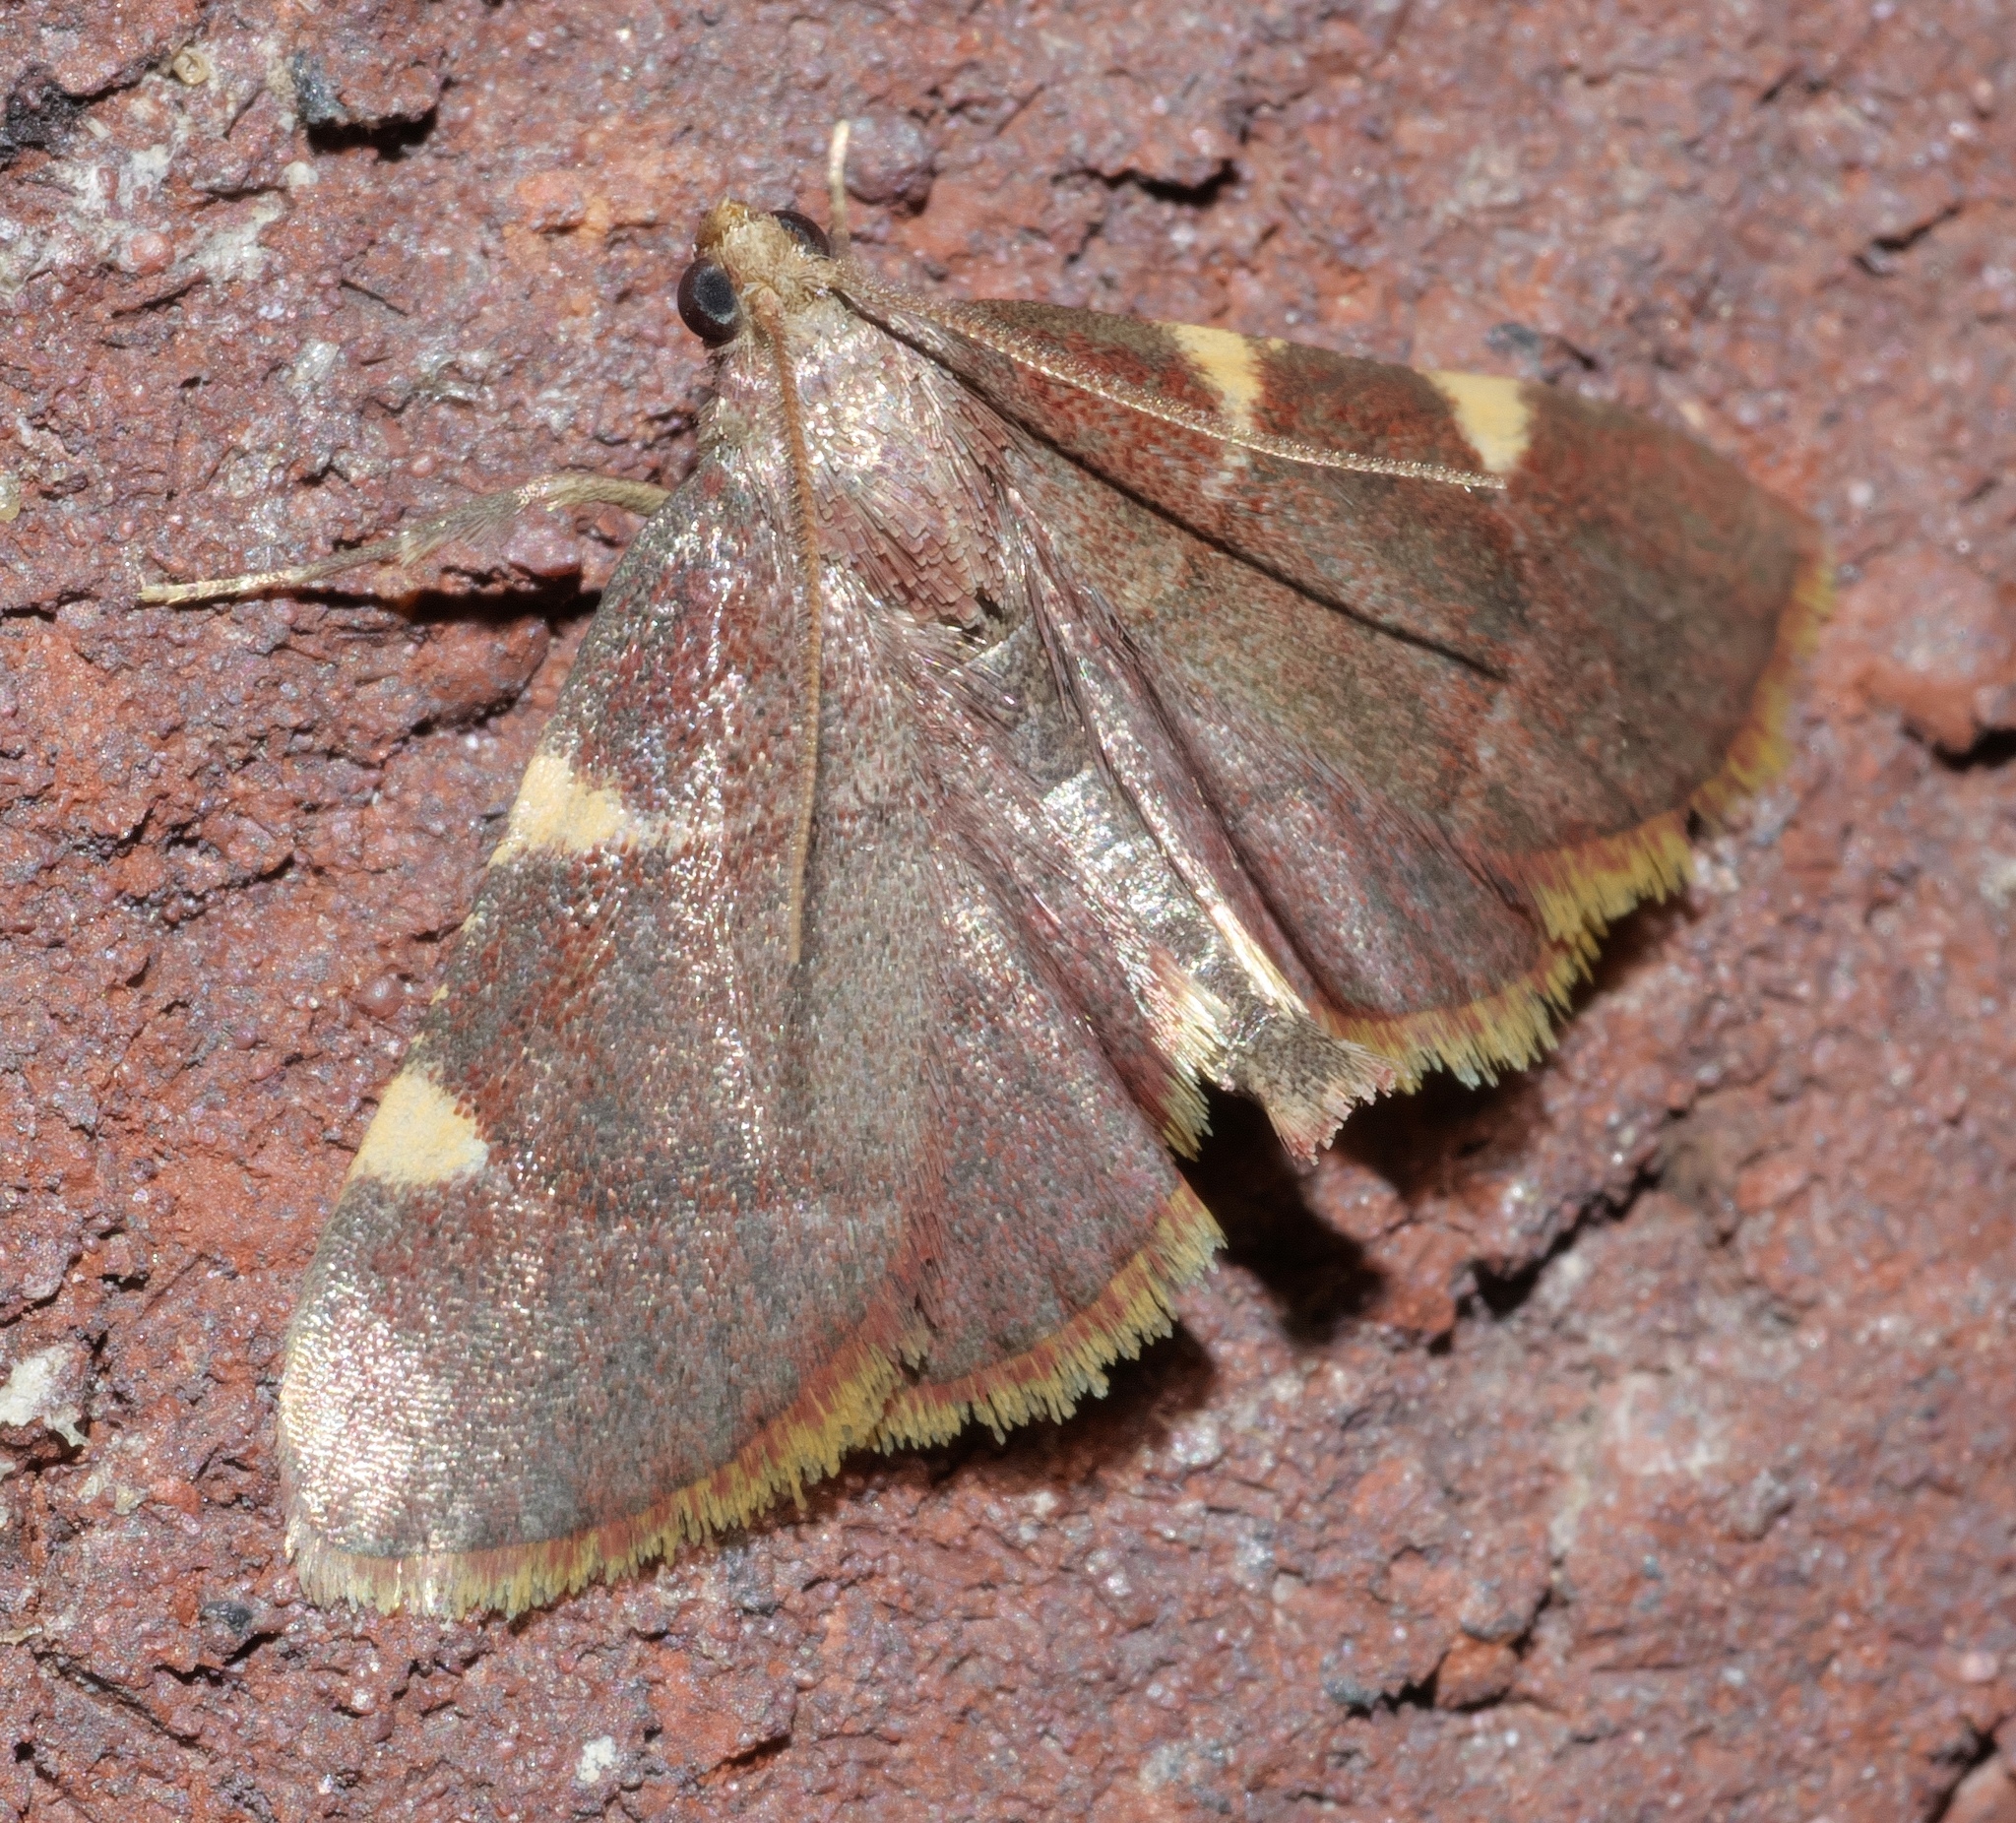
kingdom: Animalia
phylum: Arthropoda
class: Insecta
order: Lepidoptera
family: Pyralidae
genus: Hypsopygia
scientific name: Hypsopygia olinalis
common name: Yellow-fringed dolichomia moth
